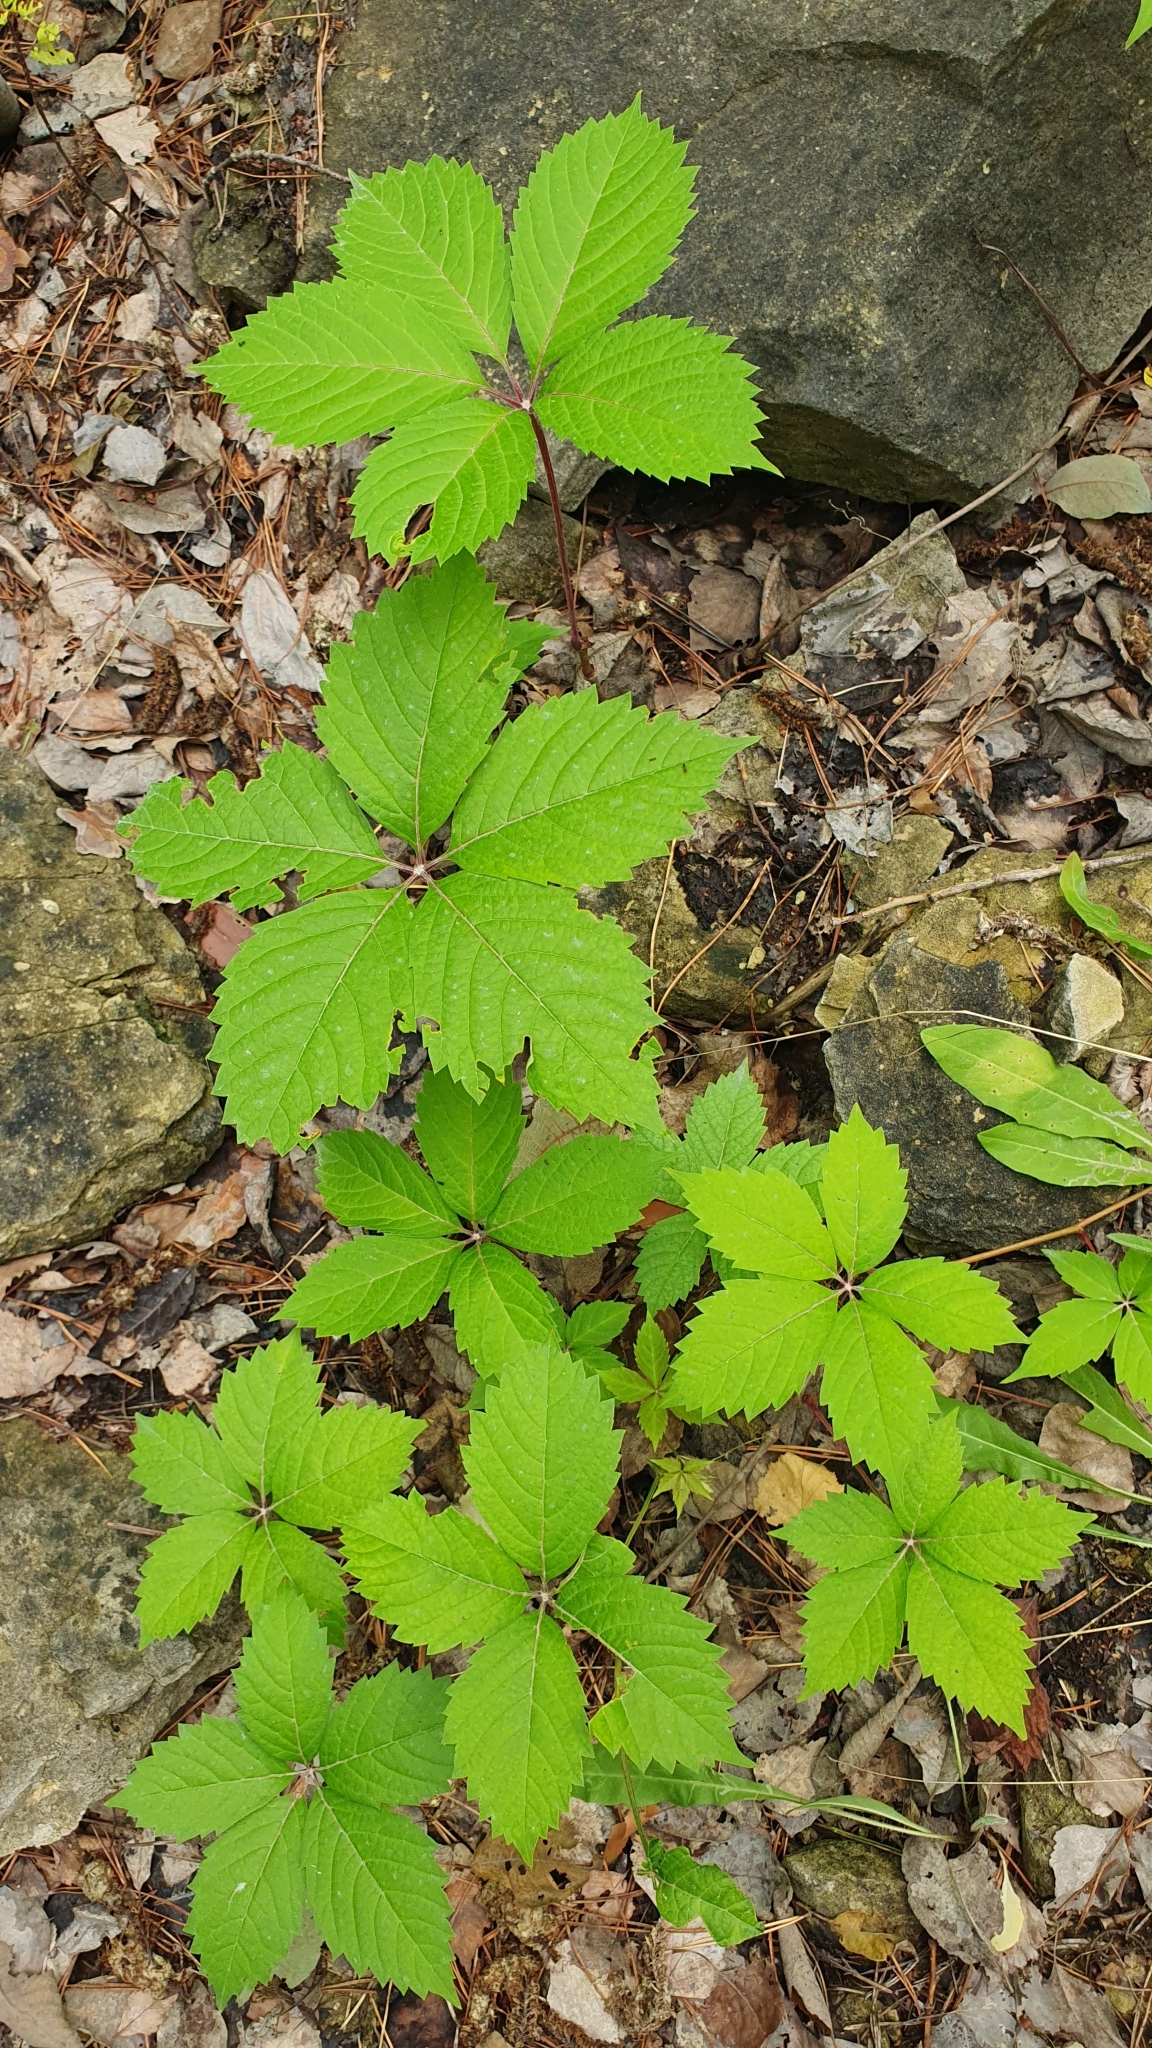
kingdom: Plantae
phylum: Tracheophyta
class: Magnoliopsida
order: Vitales
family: Vitaceae
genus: Parthenocissus
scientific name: Parthenocissus inserta
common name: False virginia-creeper
